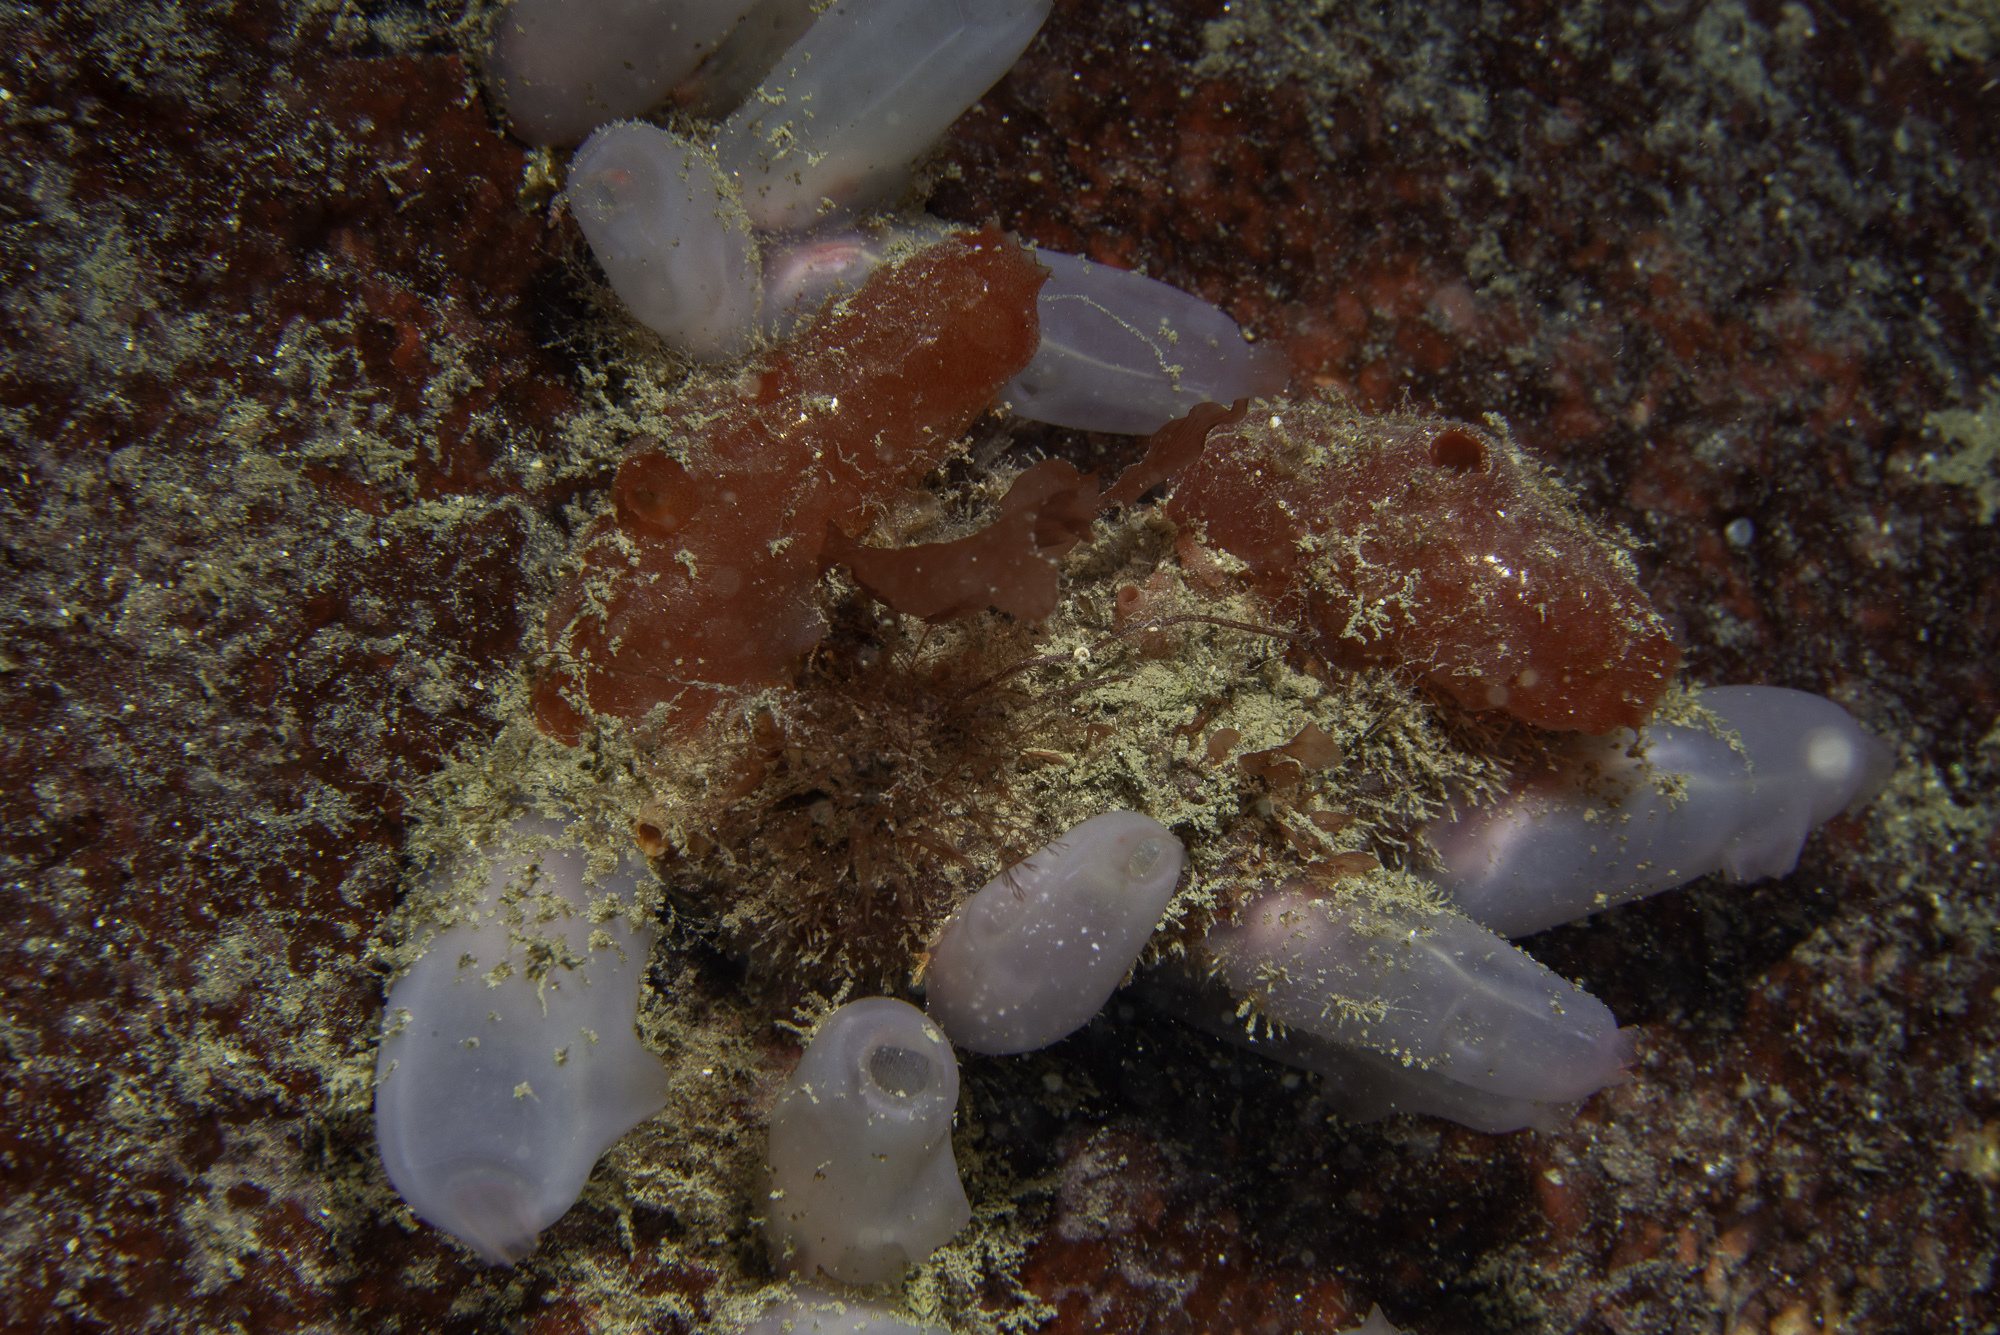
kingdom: Animalia
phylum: Chordata
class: Ascidiacea
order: Phlebobranchia
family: Ascidiidae
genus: Ascidia
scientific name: Ascidia virginea
